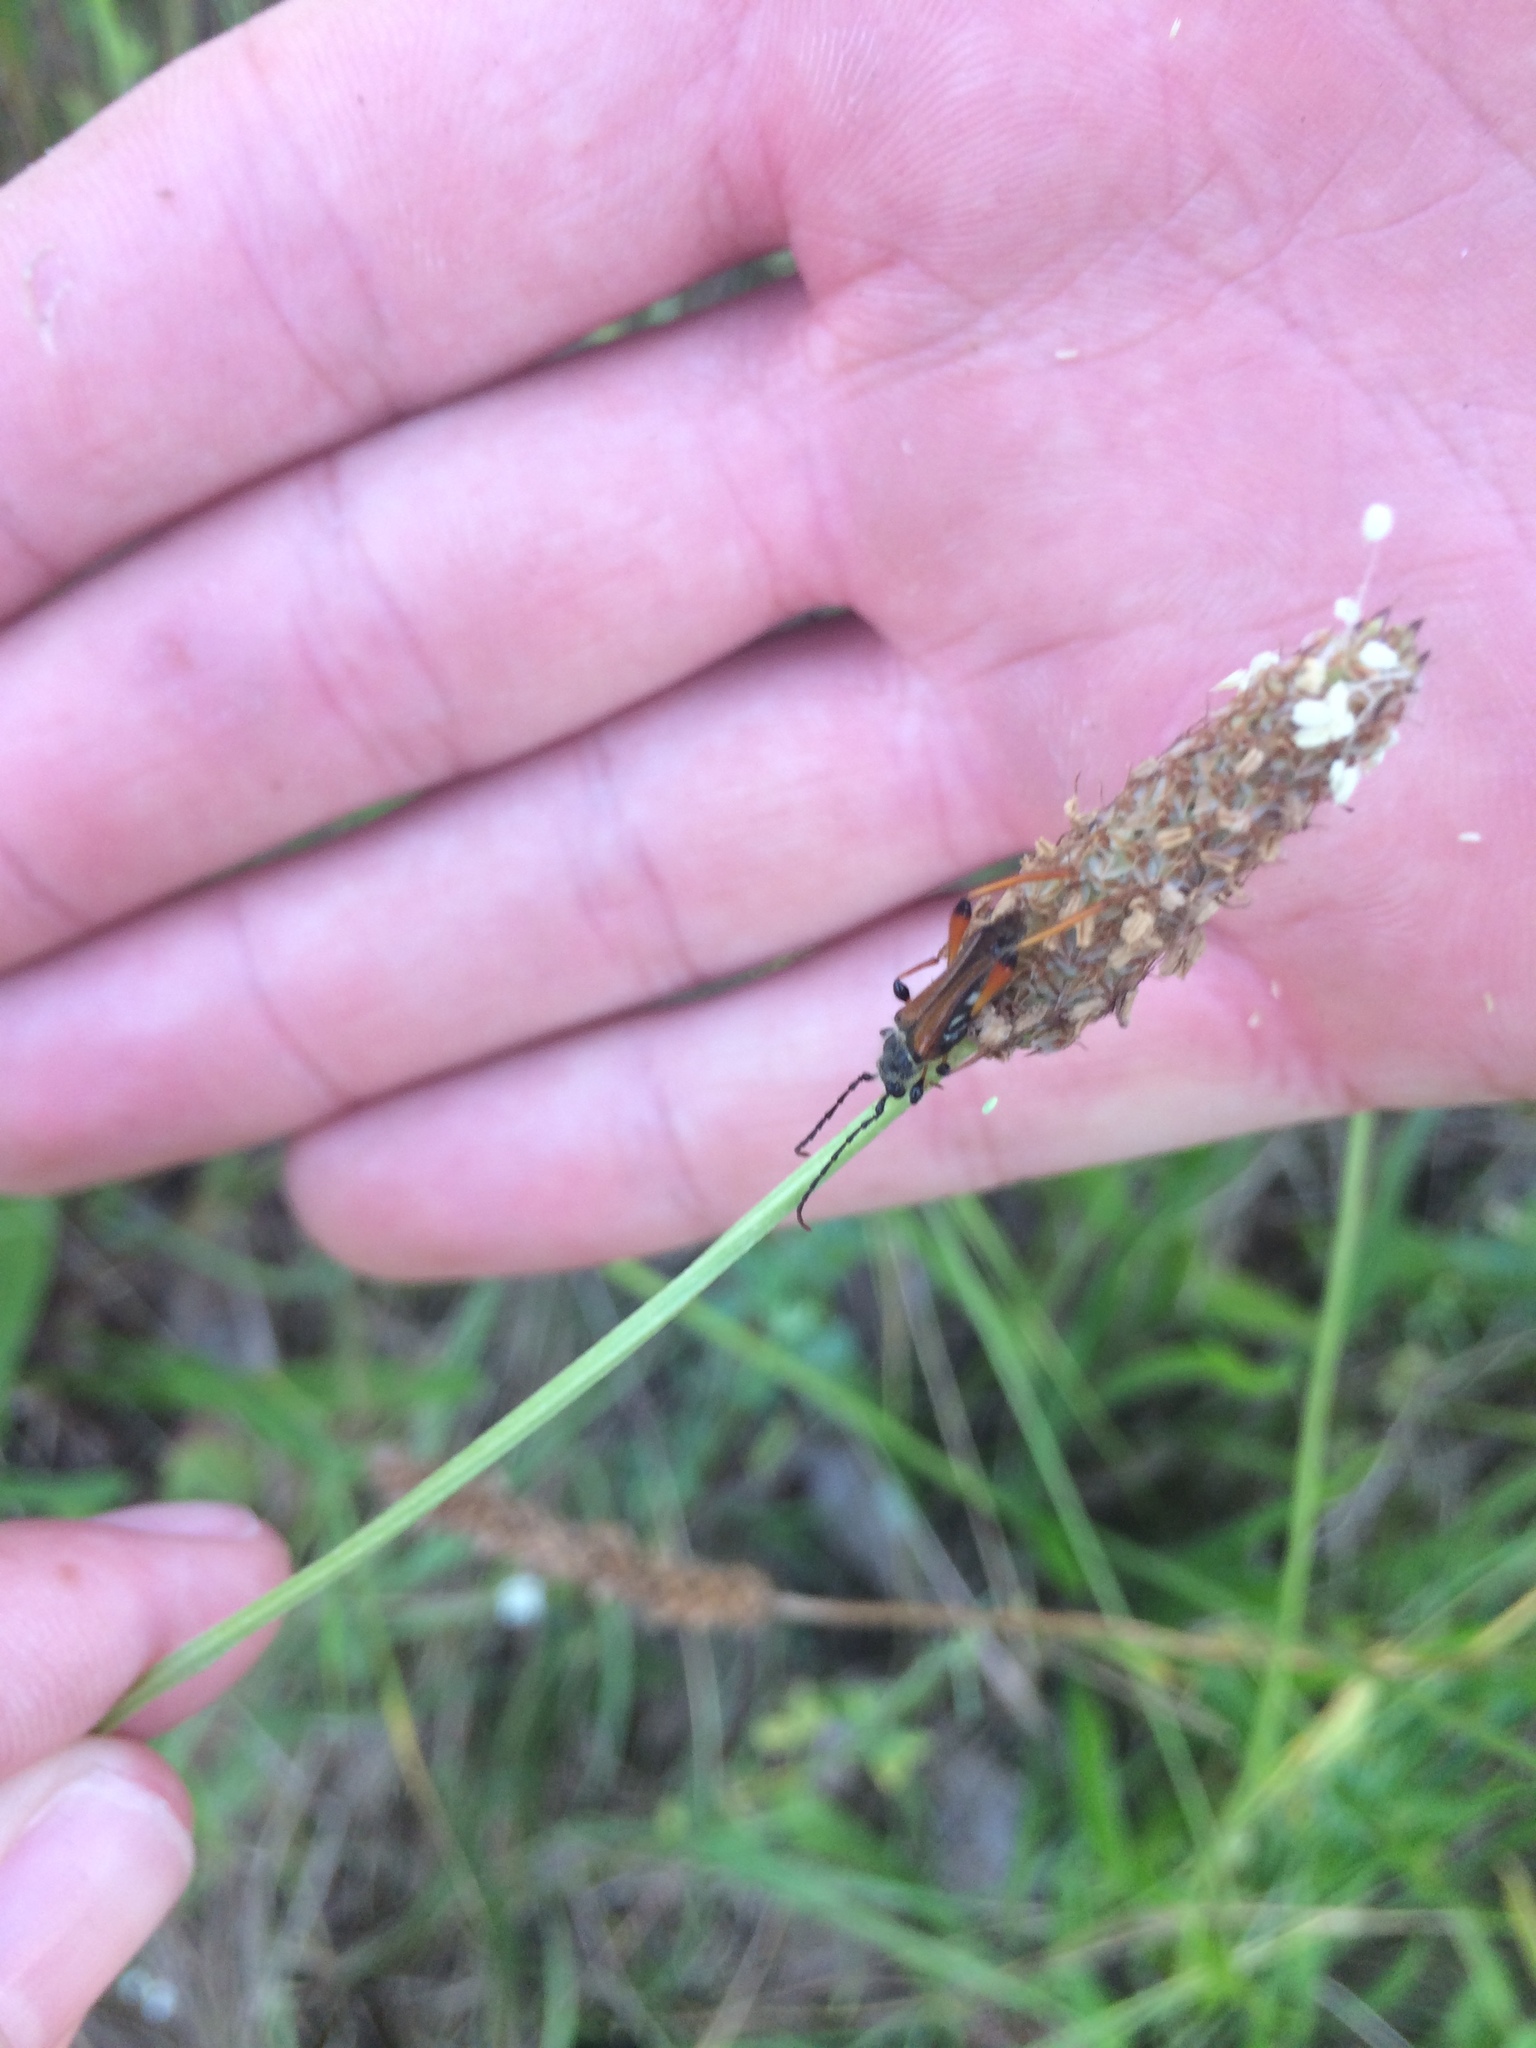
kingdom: Animalia
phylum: Arthropoda
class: Insecta
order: Coleoptera
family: Cerambycidae
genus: Stenopterus
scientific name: Stenopterus rufus
